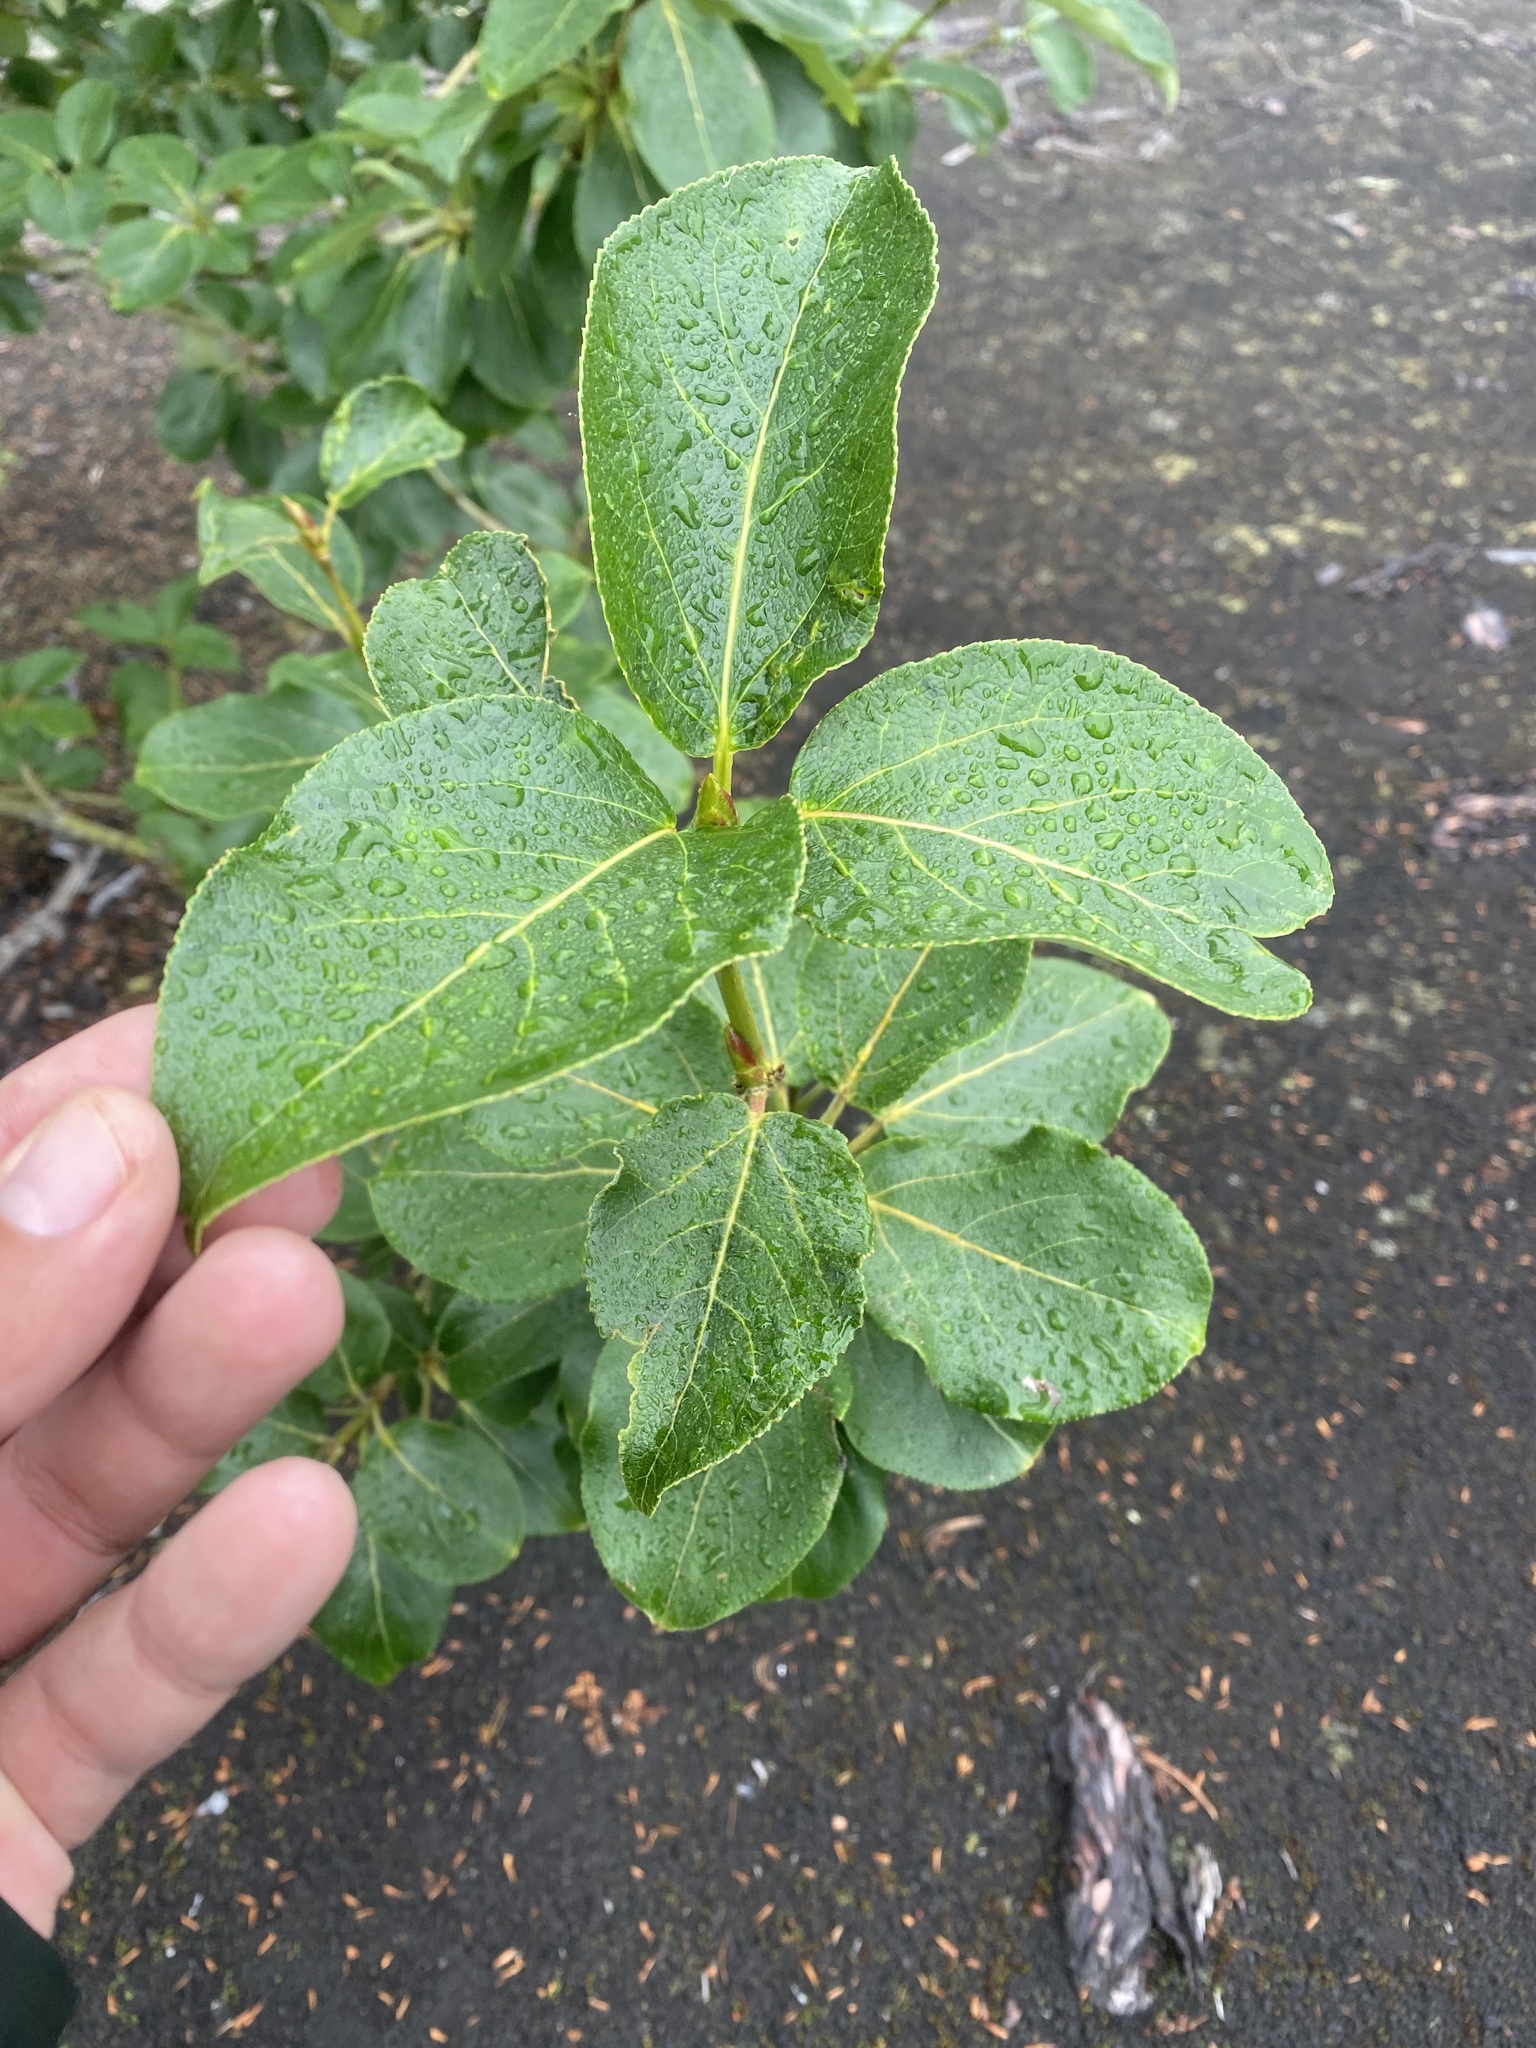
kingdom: Plantae
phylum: Tracheophyta
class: Magnoliopsida
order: Malpighiales
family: Salicaceae
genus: Populus
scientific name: Populus suaveolens
